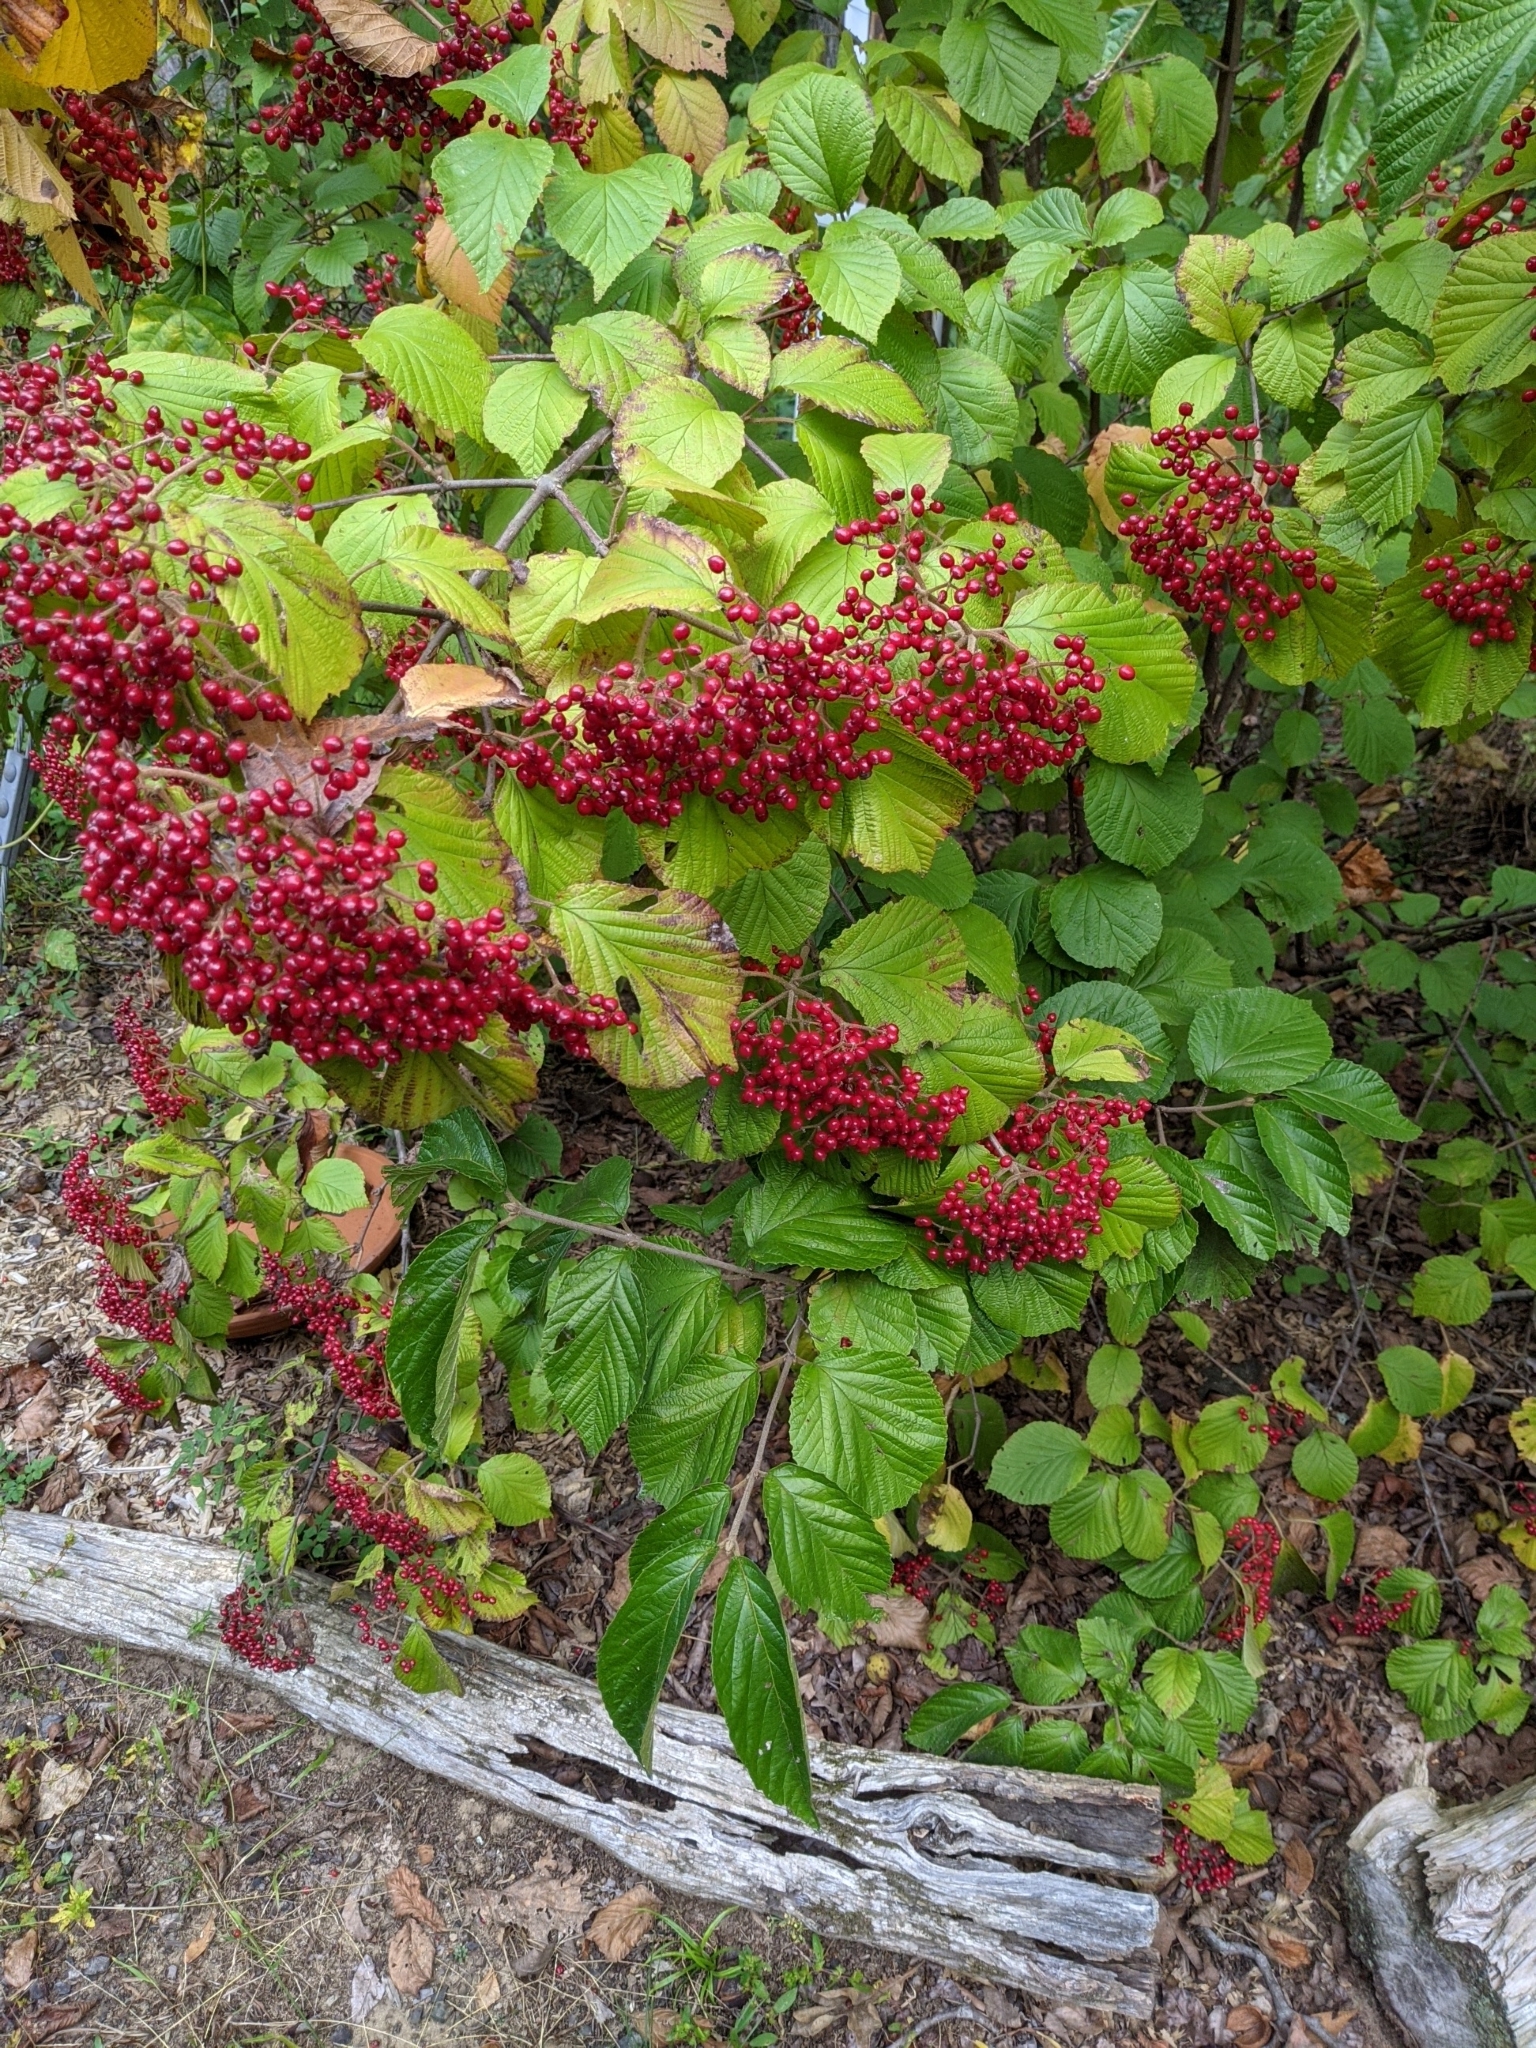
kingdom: Plantae
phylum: Tracheophyta
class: Magnoliopsida
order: Dipsacales
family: Viburnaceae
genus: Viburnum
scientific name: Viburnum dilatatum
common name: Linden arrowwood
